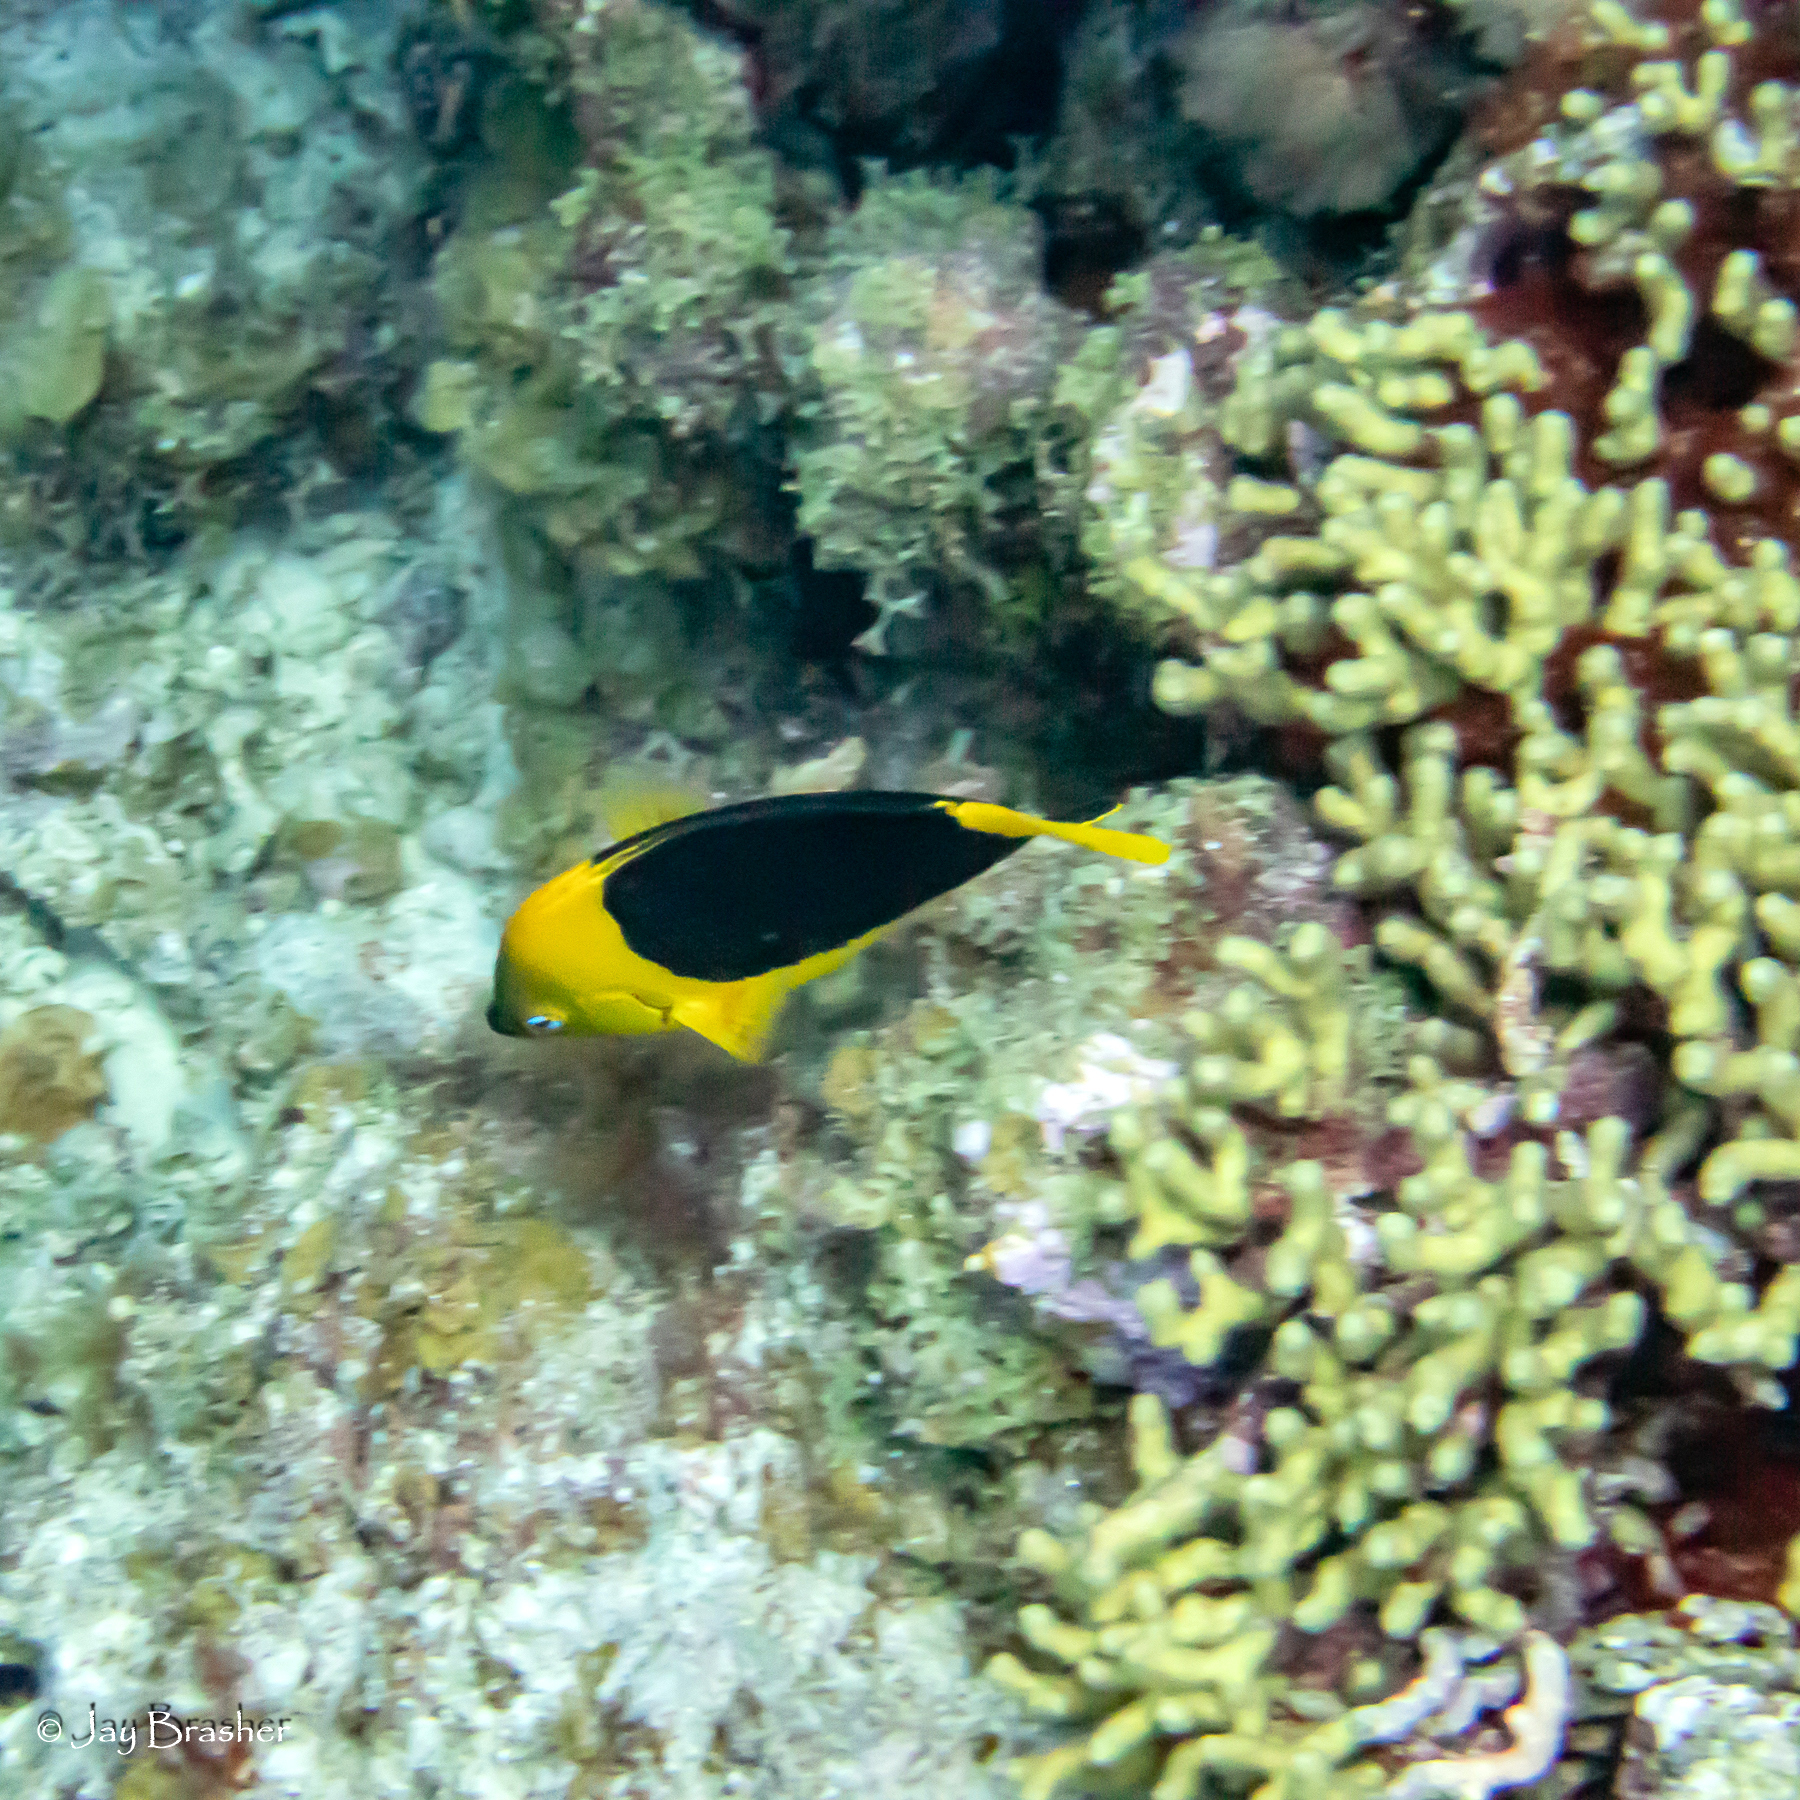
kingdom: Animalia
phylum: Chordata
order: Perciformes
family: Pomacanthidae
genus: Holacanthus
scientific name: Holacanthus tricolor
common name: Rock beauty
